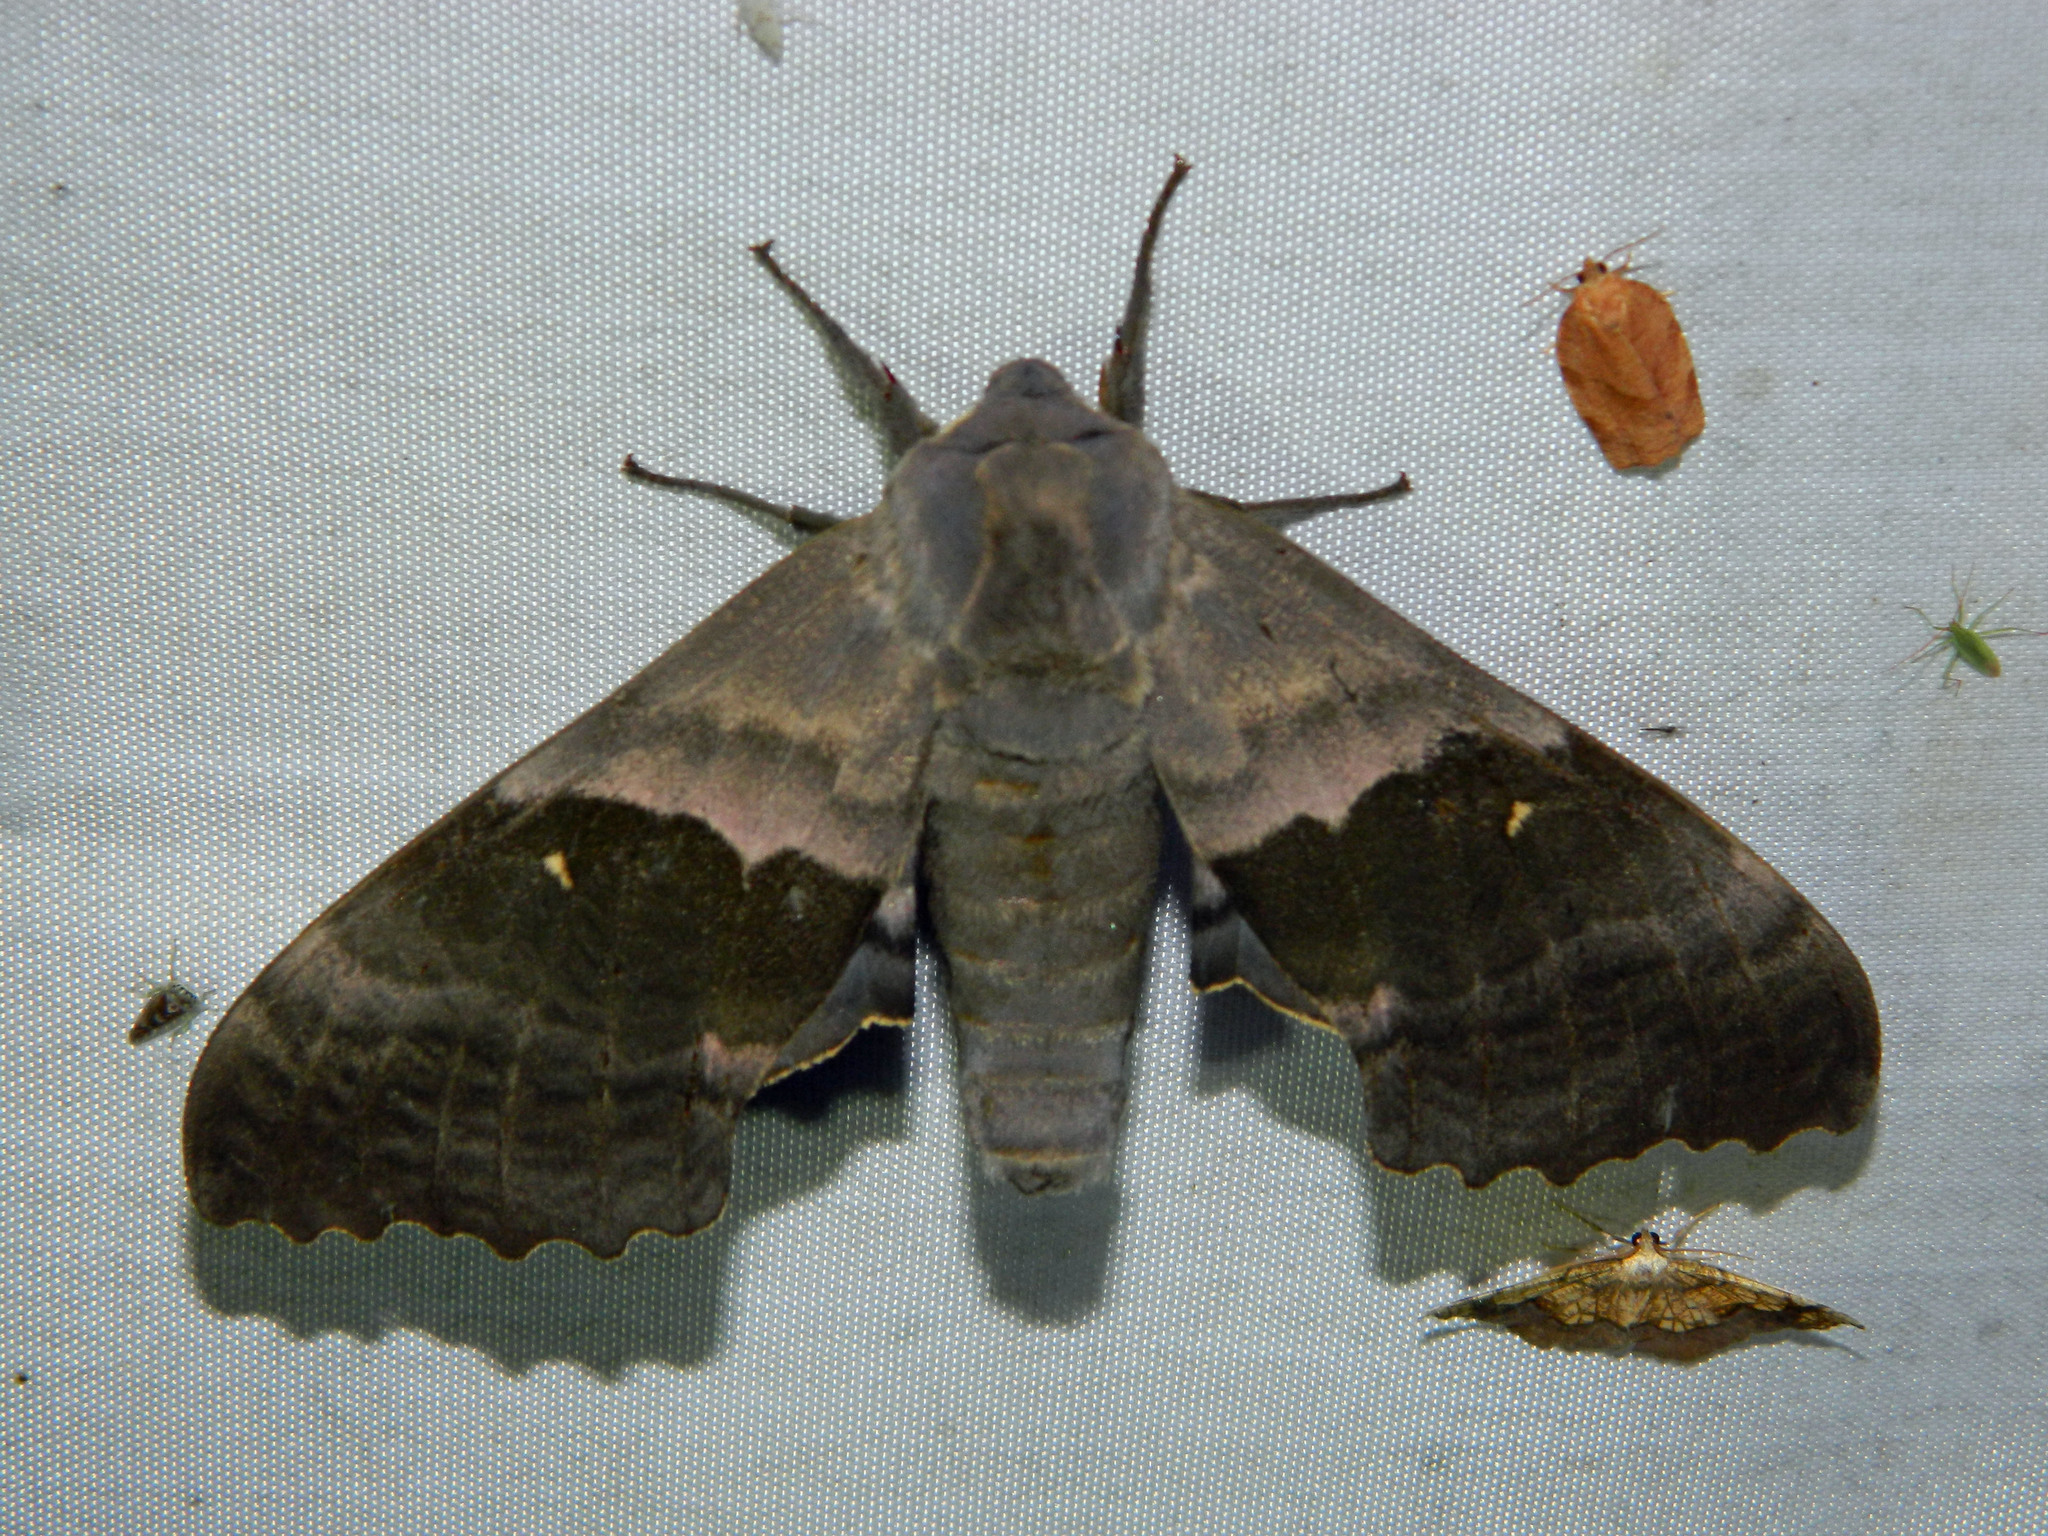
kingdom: Animalia
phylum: Arthropoda
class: Insecta
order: Lepidoptera
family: Sphingidae
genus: Pachysphinx
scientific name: Pachysphinx modesta
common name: Big poplar sphinx
